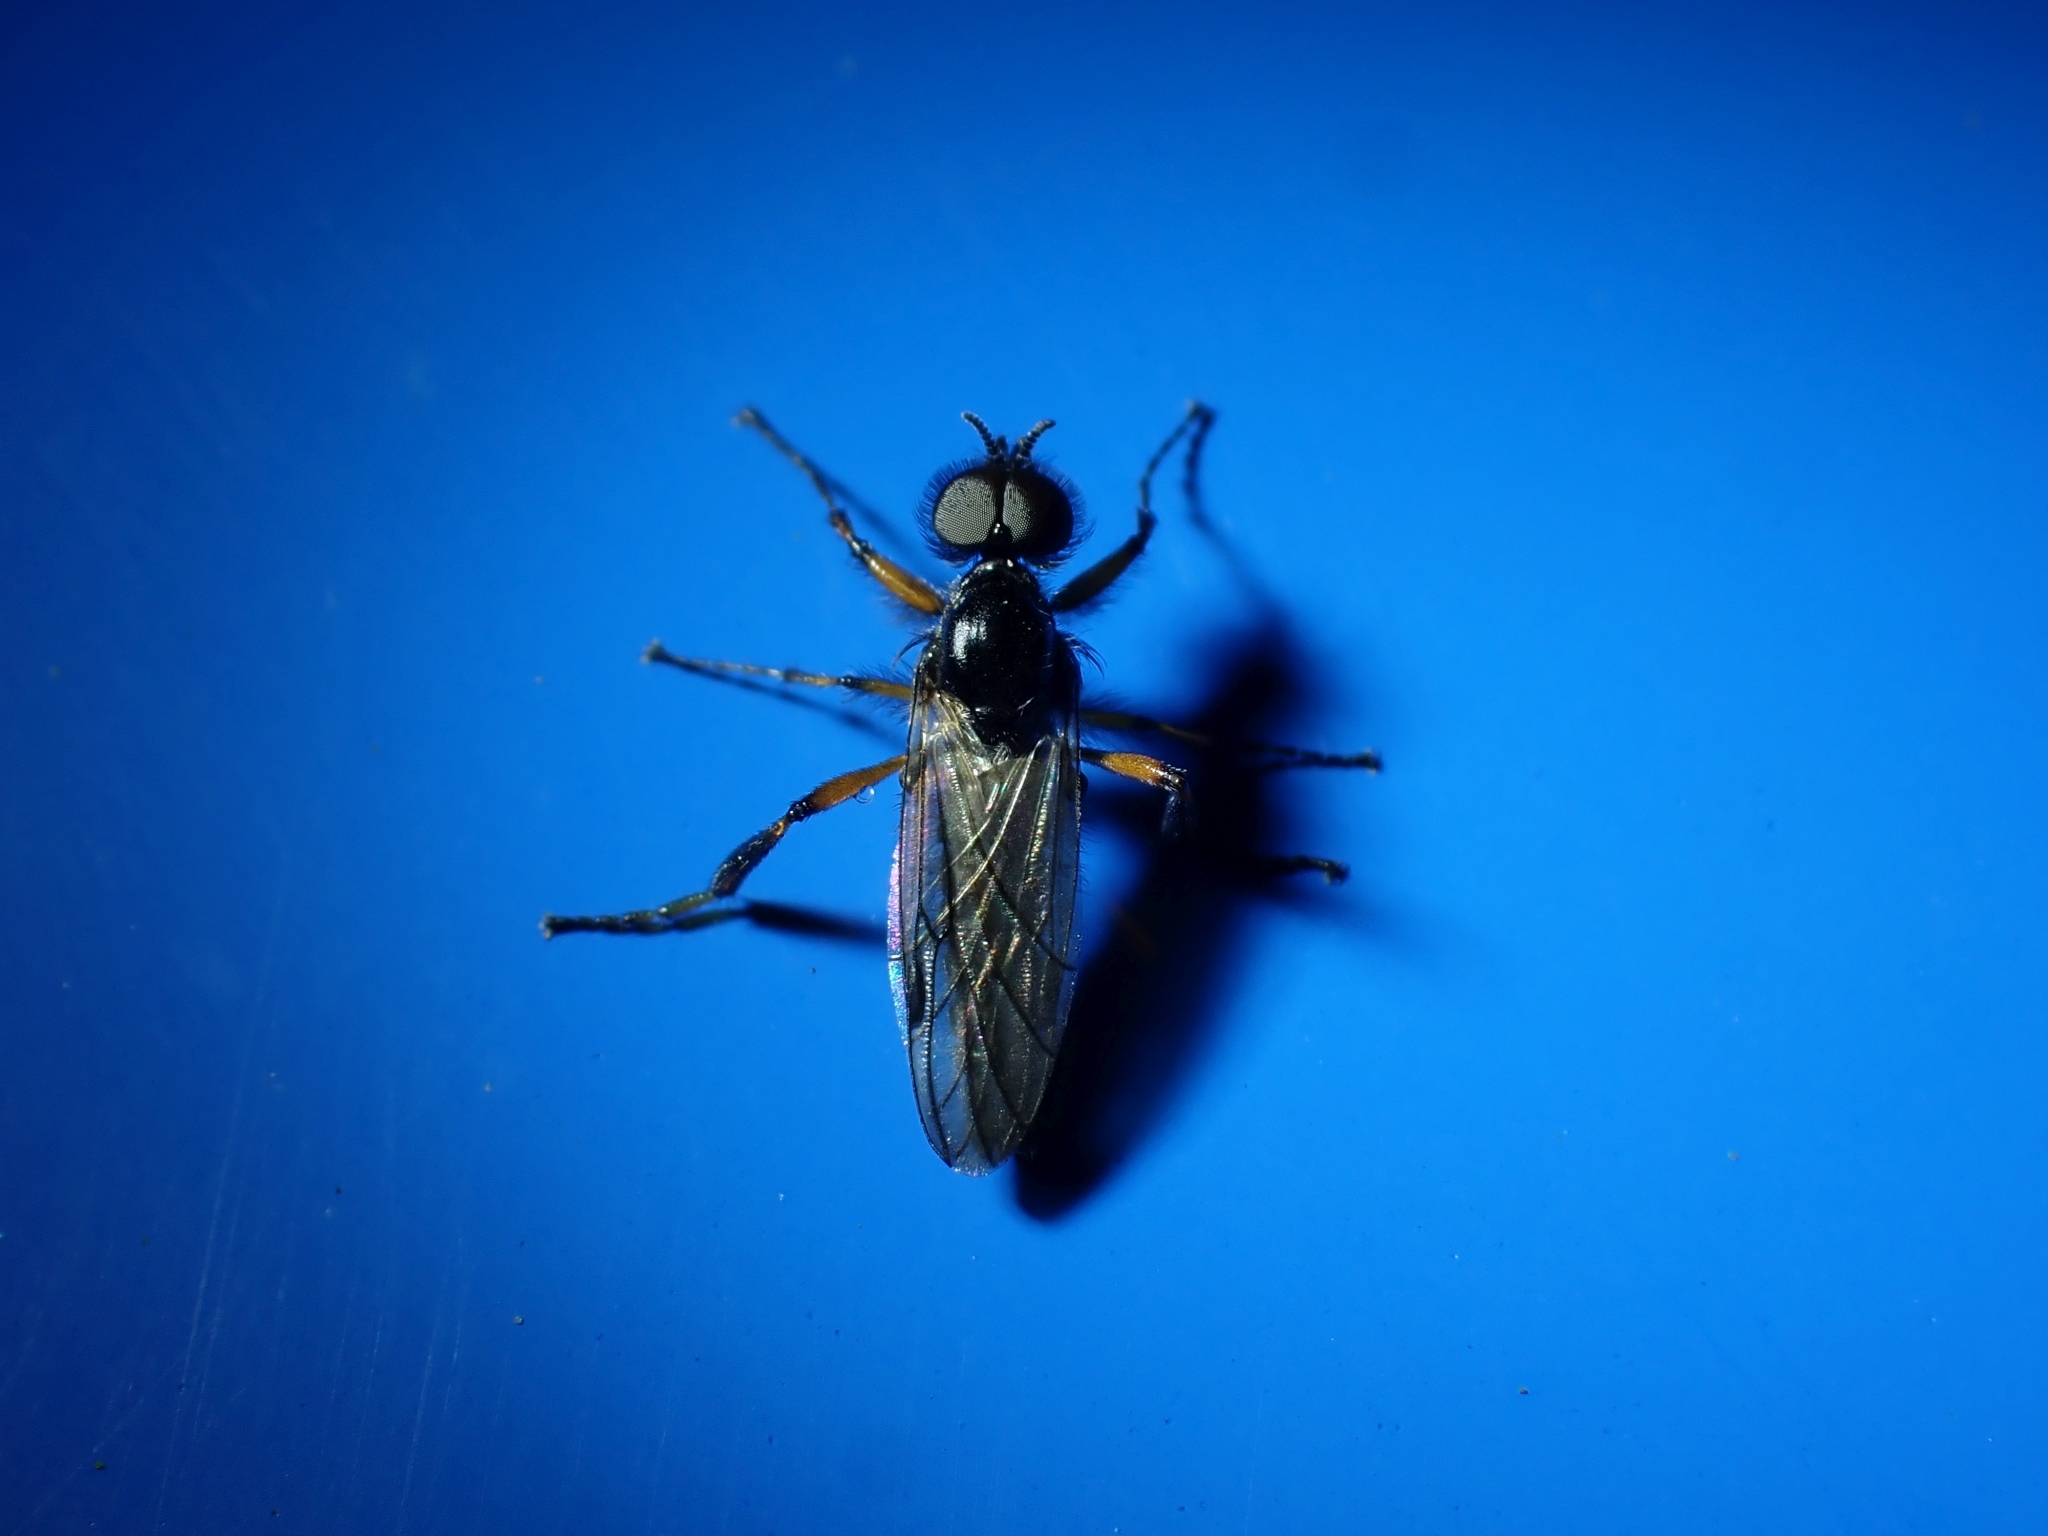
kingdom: Animalia
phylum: Arthropoda
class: Insecta
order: Diptera
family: Bibionidae
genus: Bibio
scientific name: Bibio xanthopus
